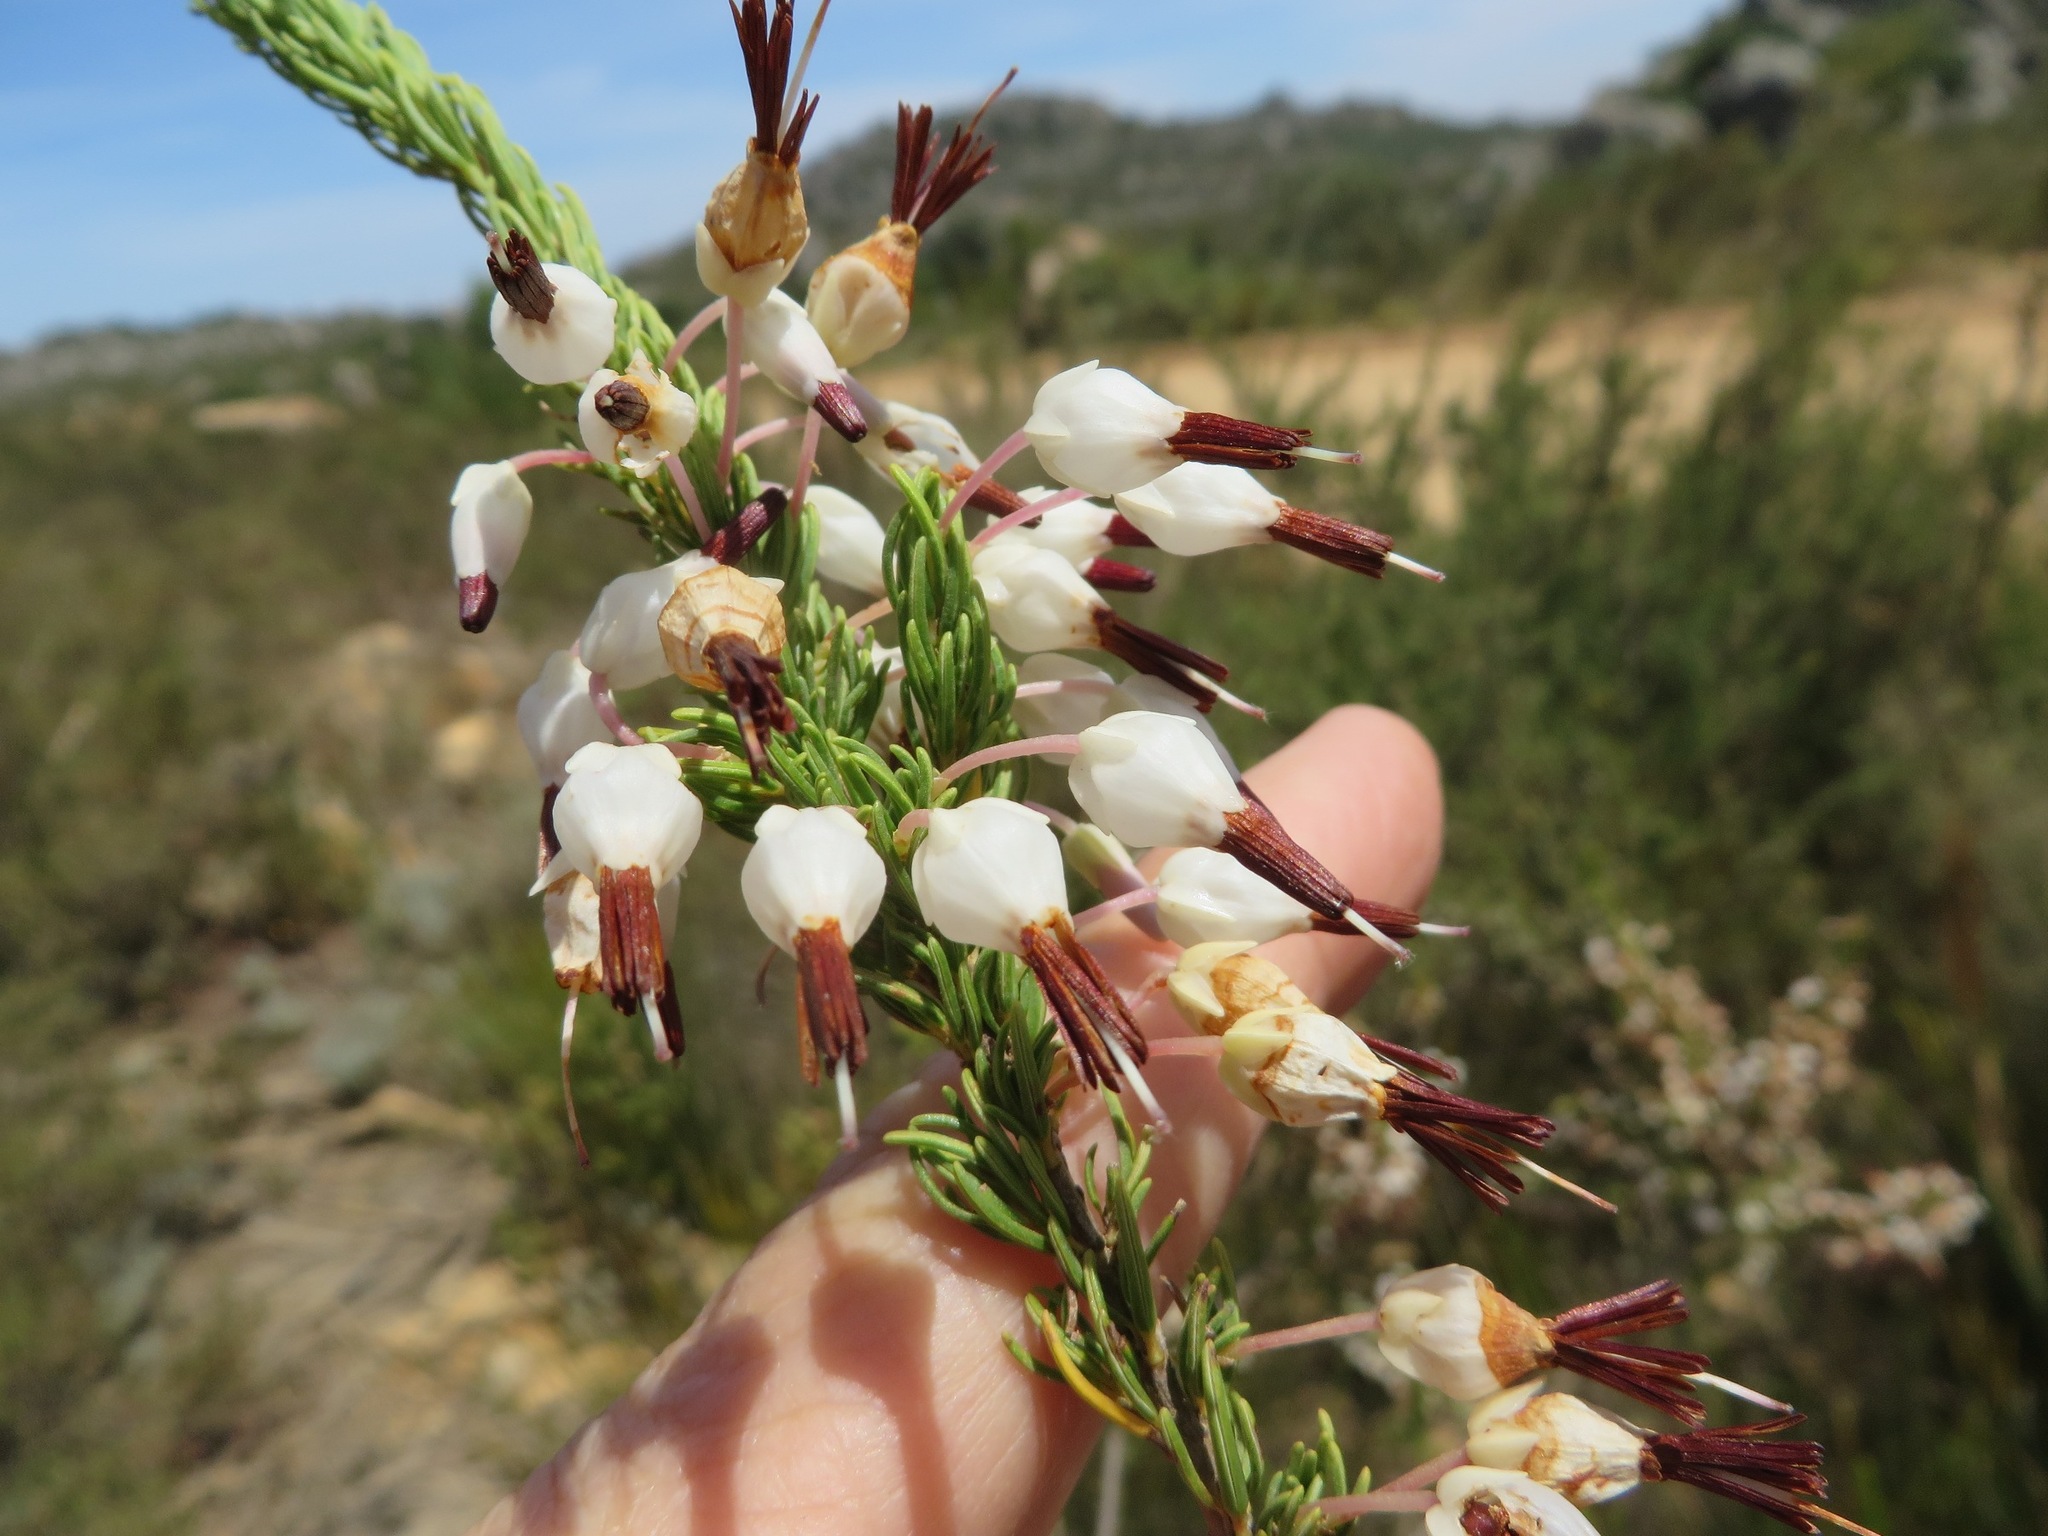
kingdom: Plantae
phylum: Tracheophyta
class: Magnoliopsida
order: Ericales
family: Ericaceae
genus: Erica
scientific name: Erica plukenetii
